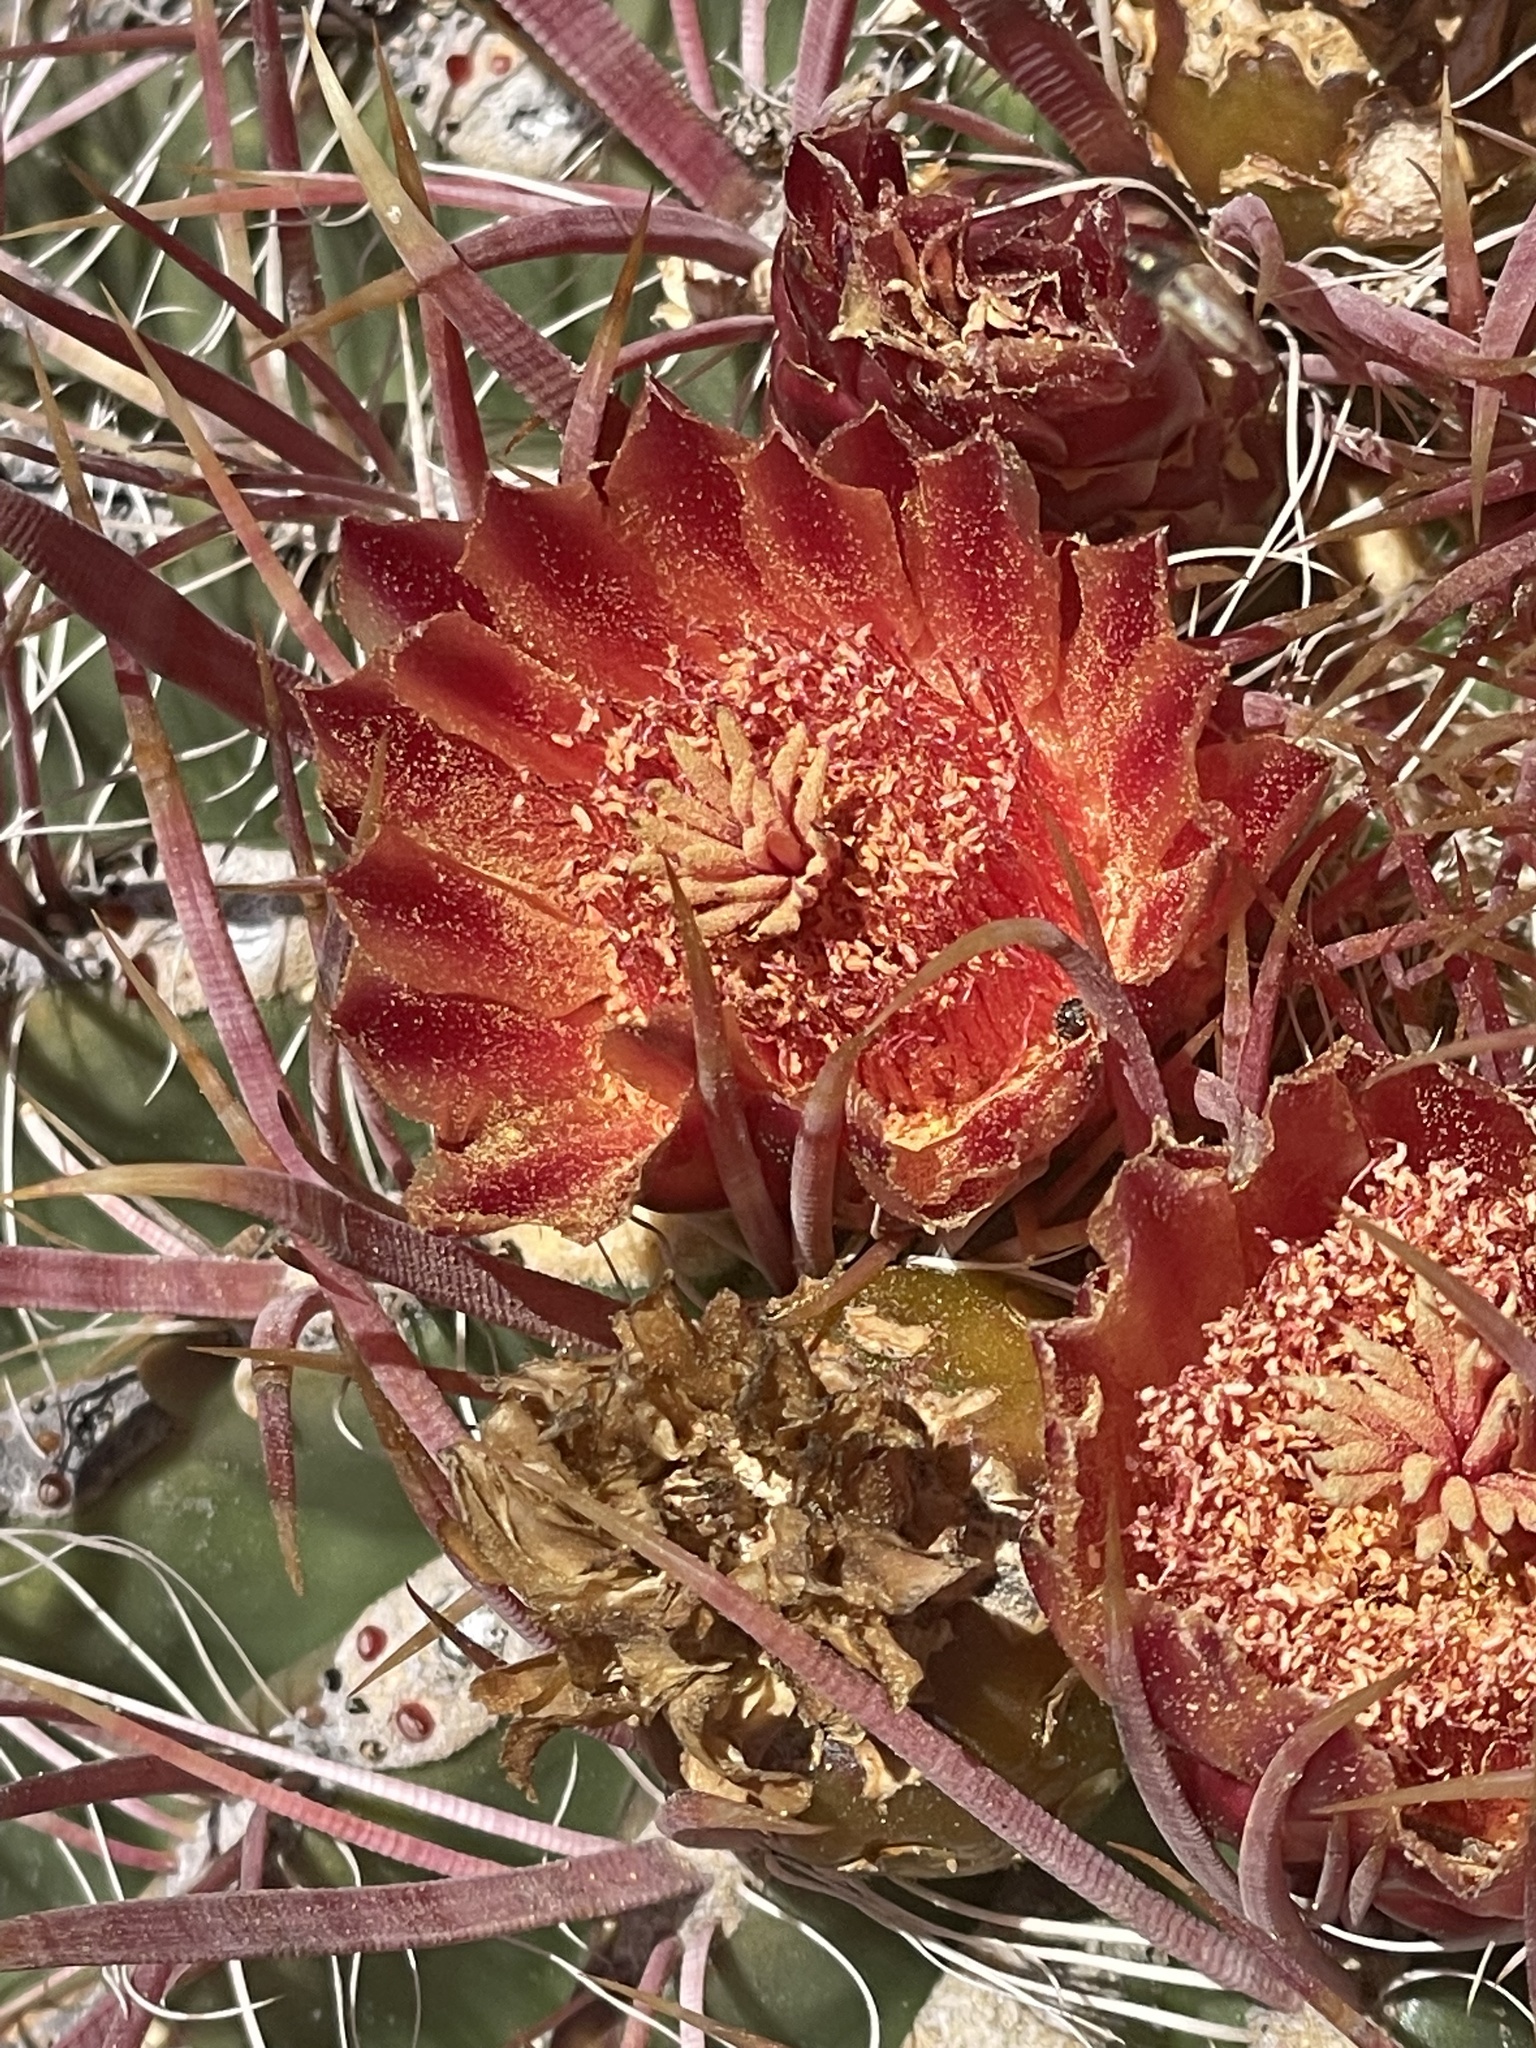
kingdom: Plantae
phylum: Tracheophyta
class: Magnoliopsida
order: Caryophyllales
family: Cactaceae
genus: Ferocactus
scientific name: Ferocactus gracilis
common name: Fire barrel cactus
